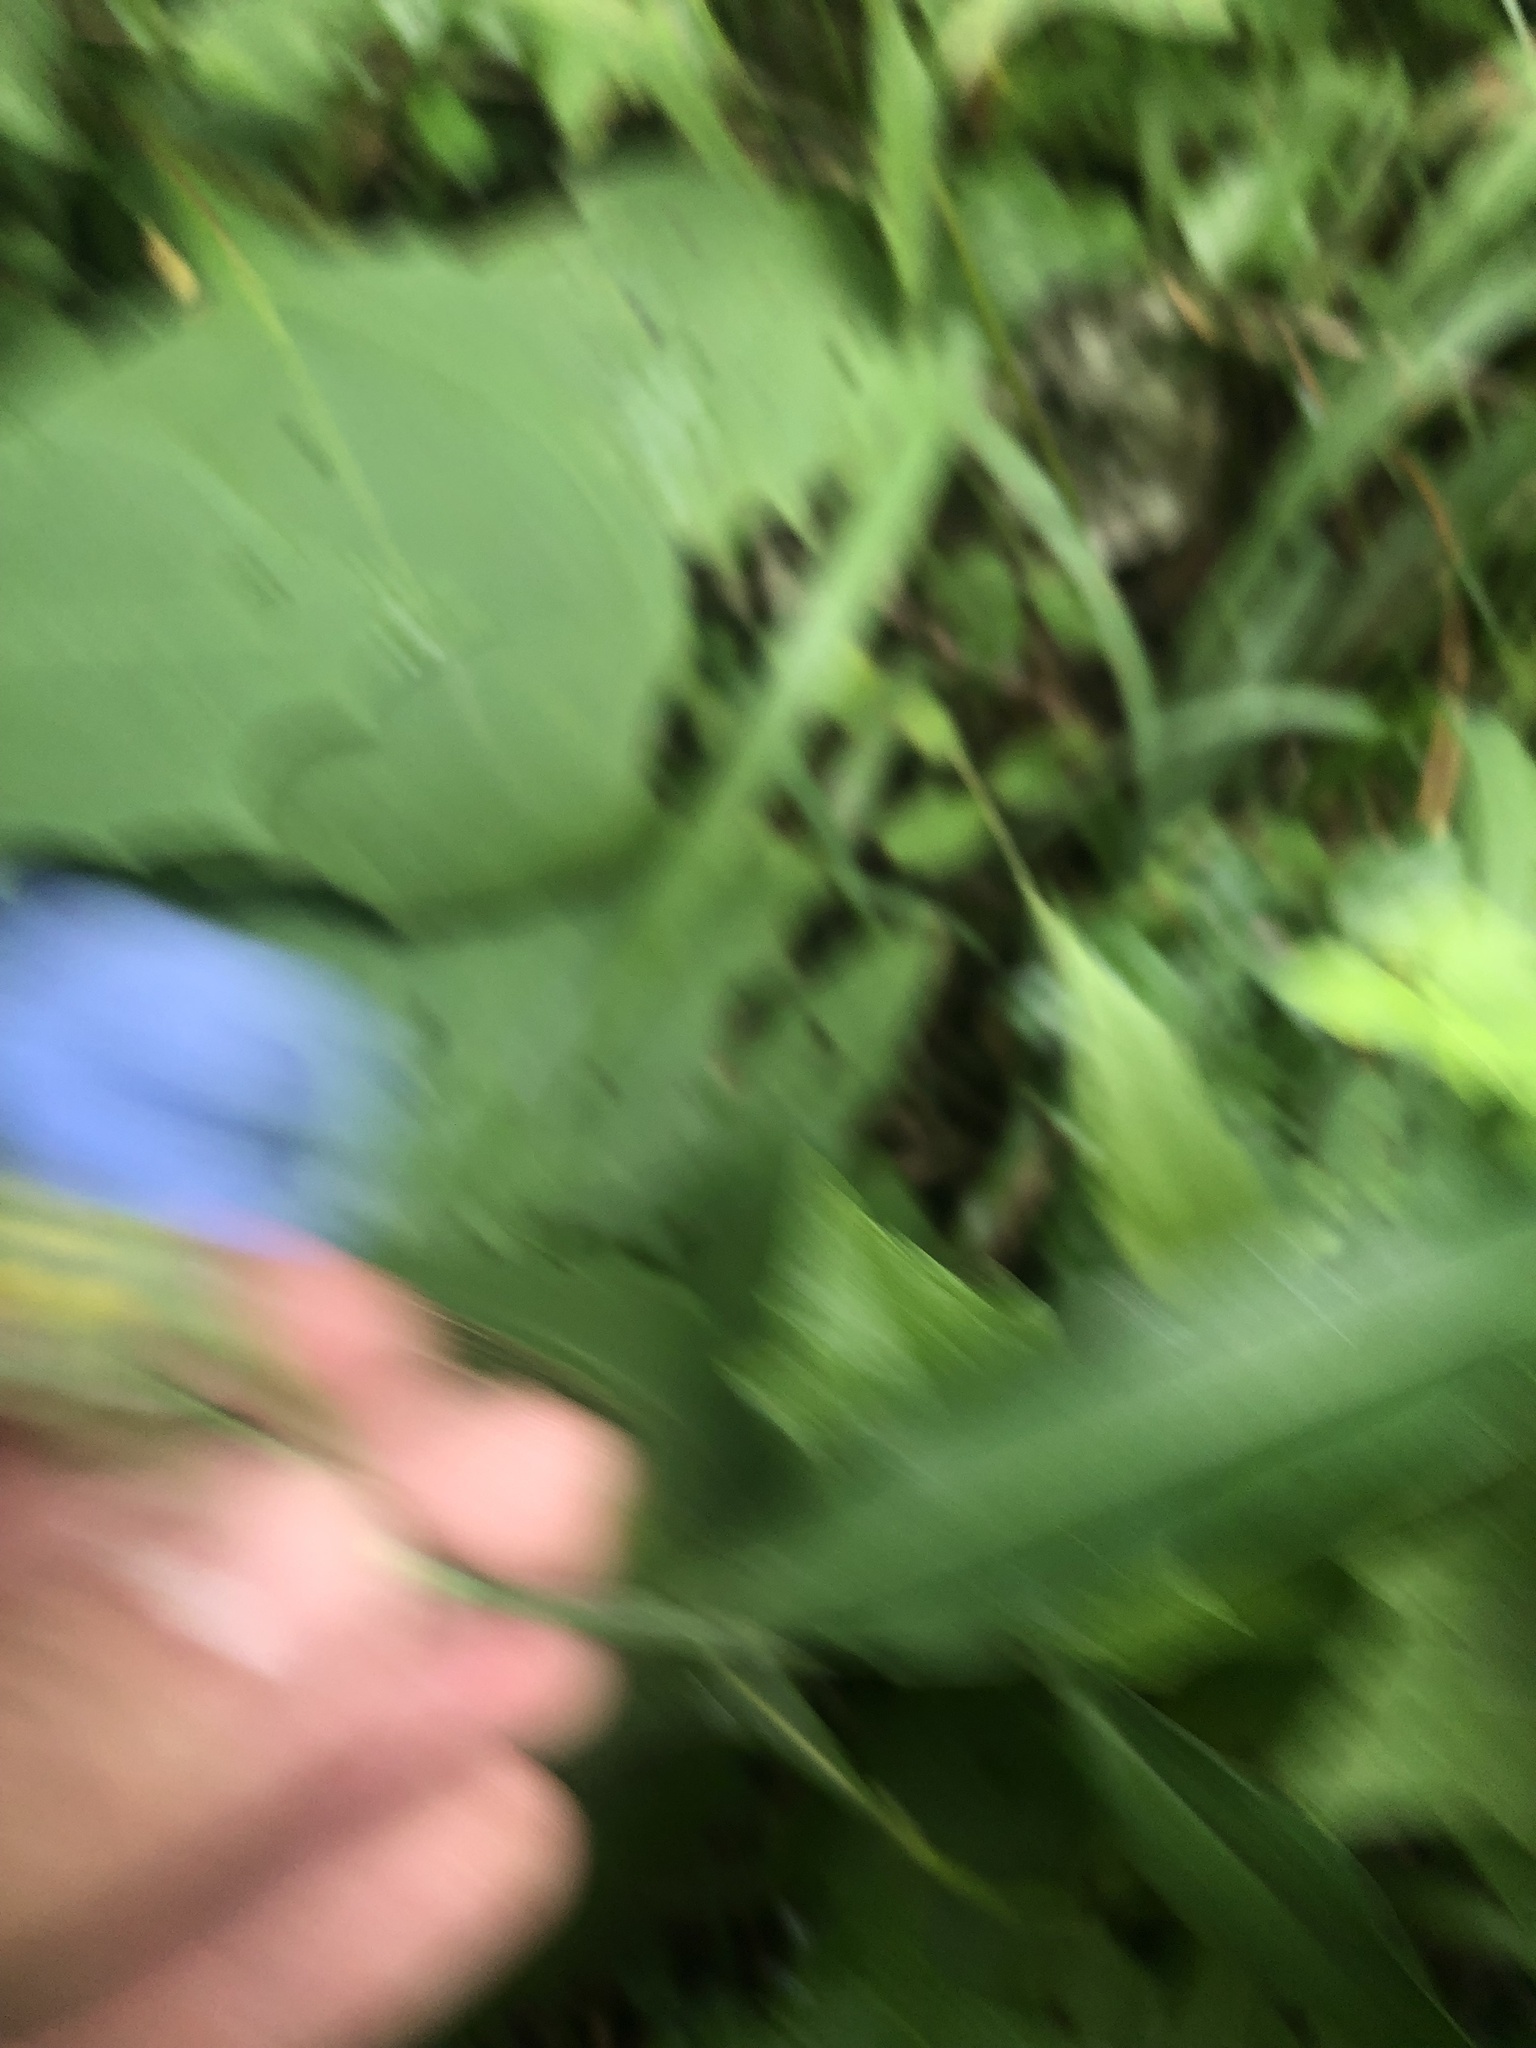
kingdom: Plantae
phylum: Tracheophyta
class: Liliopsida
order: Commelinales
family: Commelinaceae
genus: Commelina
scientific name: Commelina erecta
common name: Blousel blommetjie
